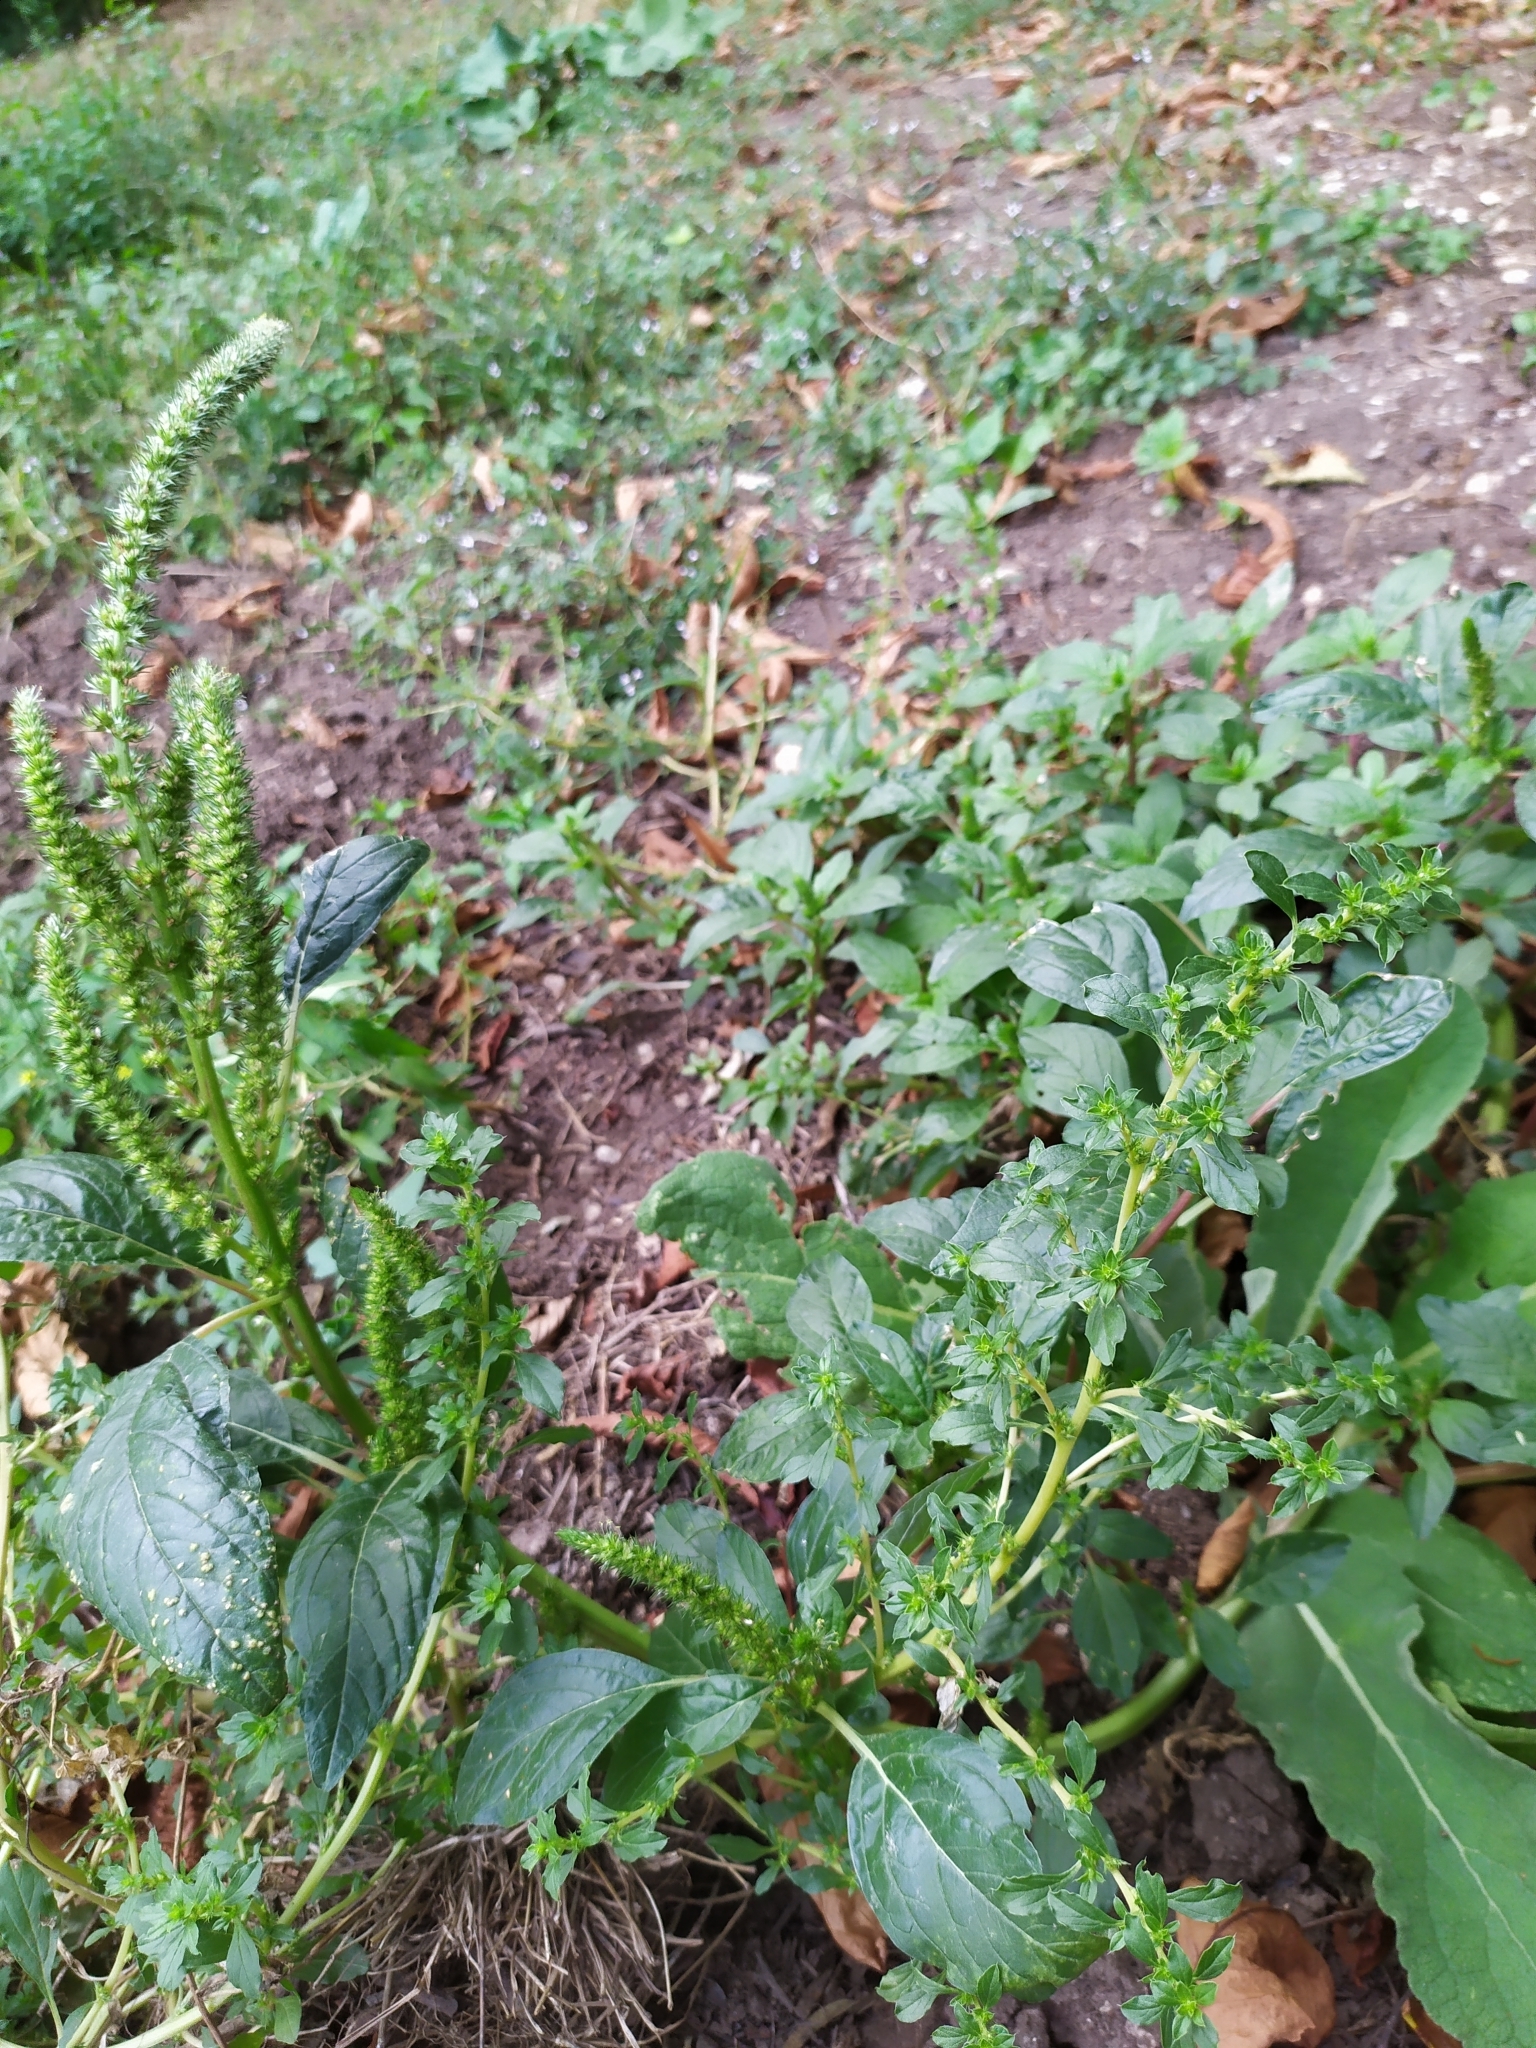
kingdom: Plantae
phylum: Tracheophyta
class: Magnoliopsida
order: Caryophyllales
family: Amaranthaceae
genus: Amaranthus
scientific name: Amaranthus albus
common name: White pigweed
